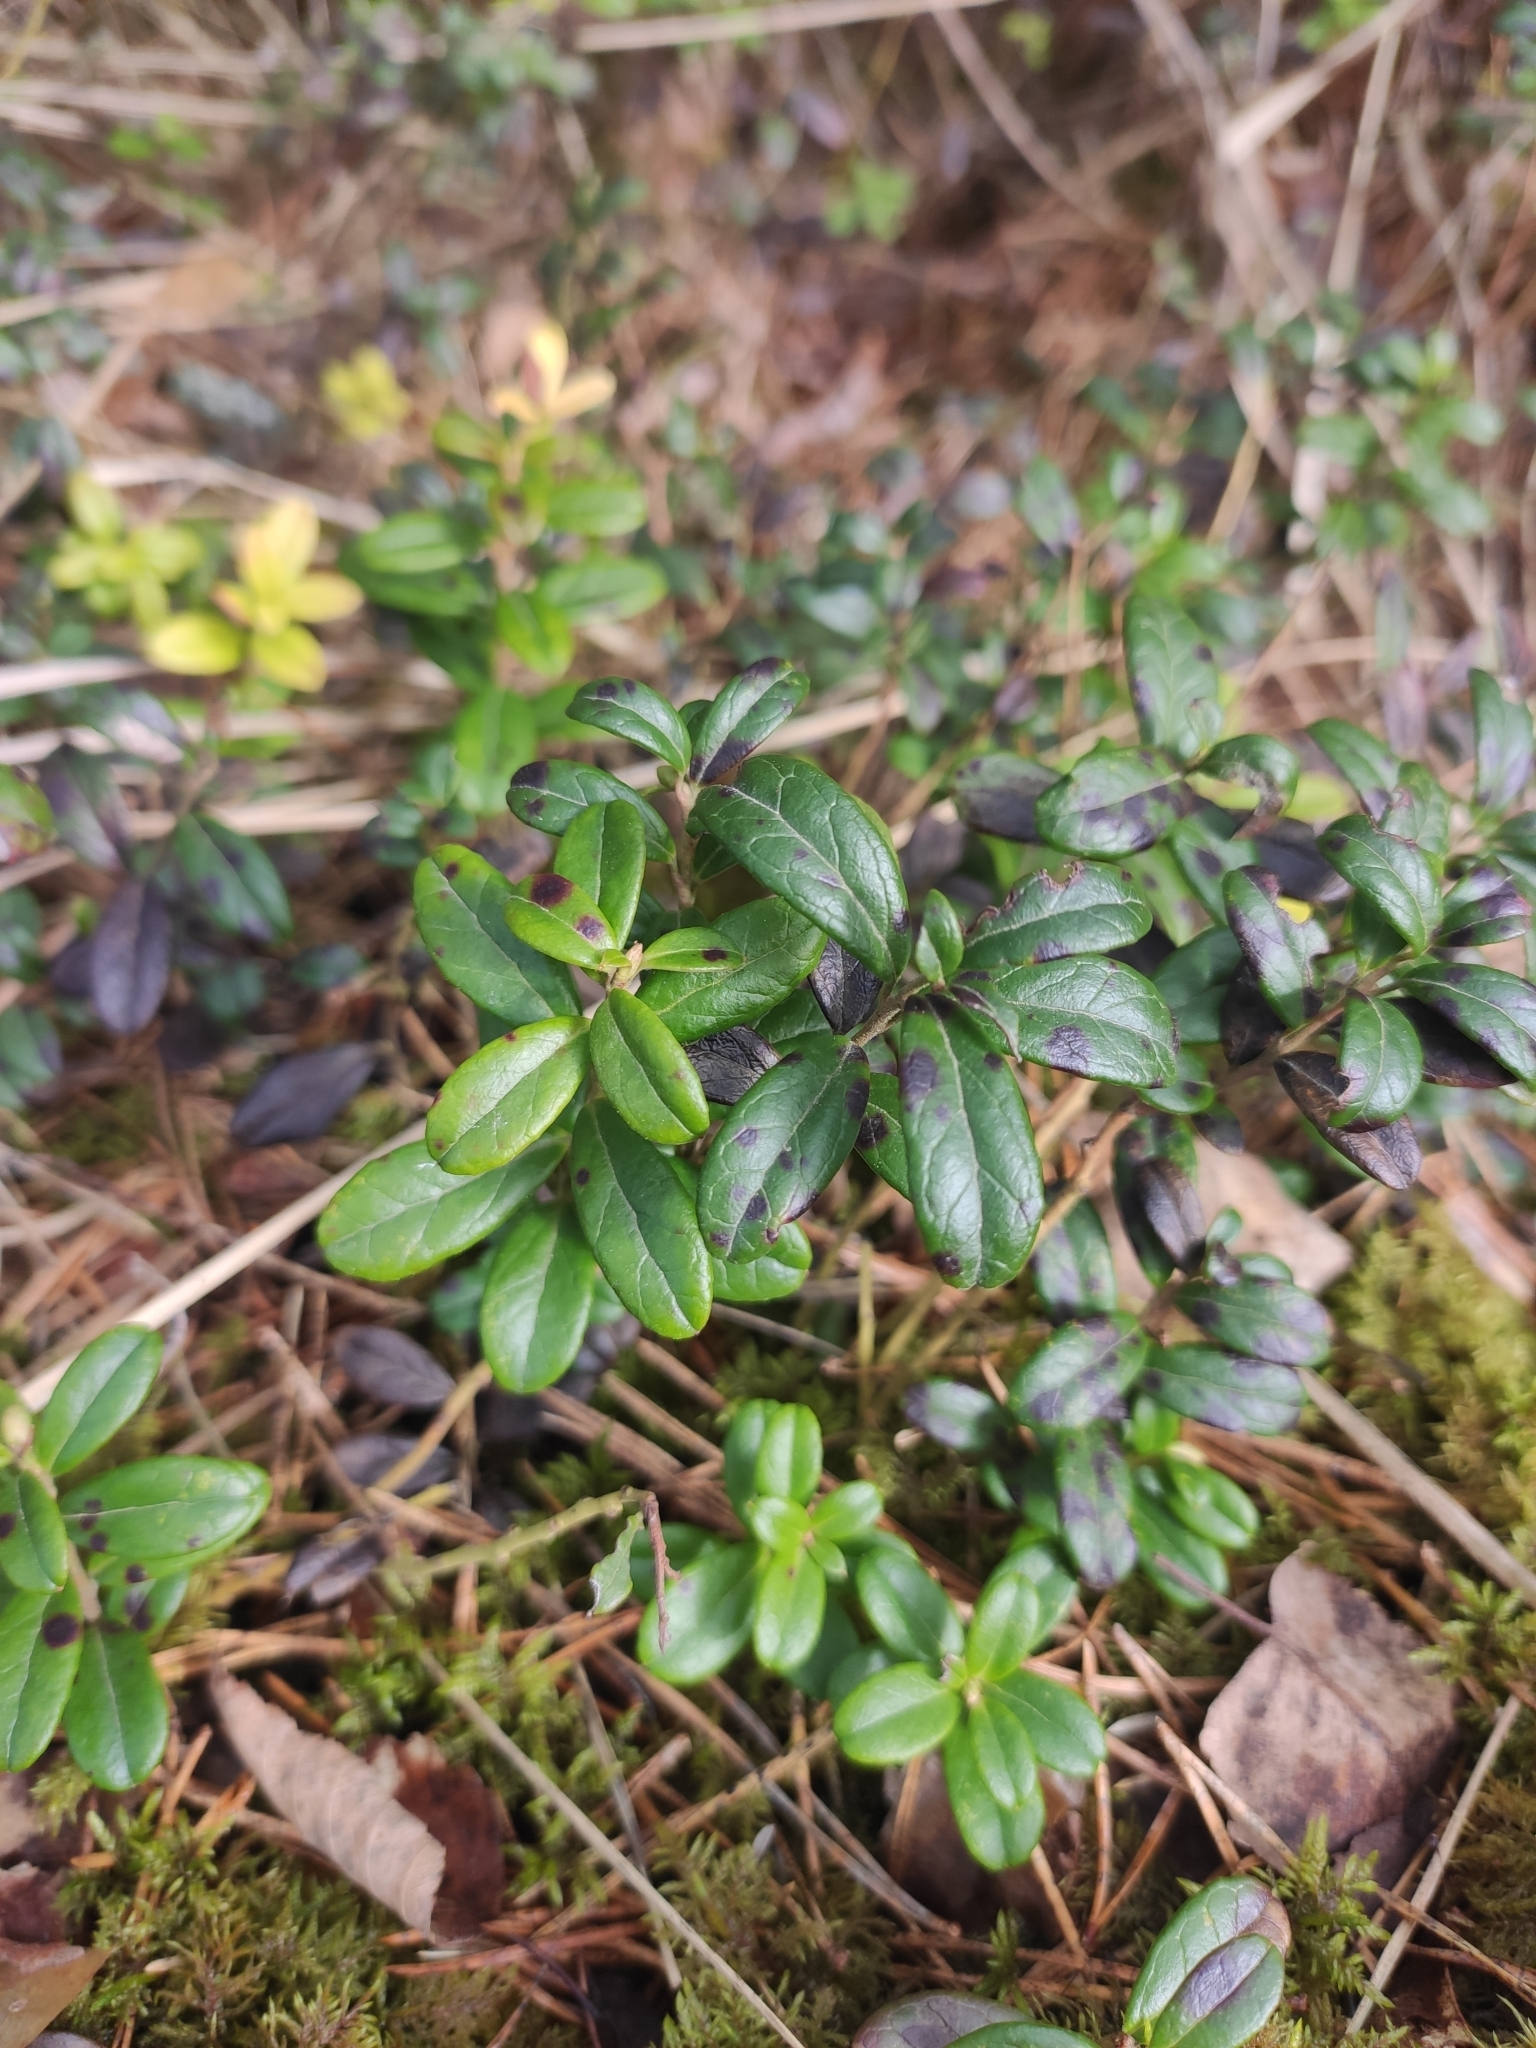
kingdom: Plantae
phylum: Tracheophyta
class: Magnoliopsida
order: Ericales
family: Ericaceae
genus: Vaccinium
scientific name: Vaccinium vitis-idaea
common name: Cowberry
